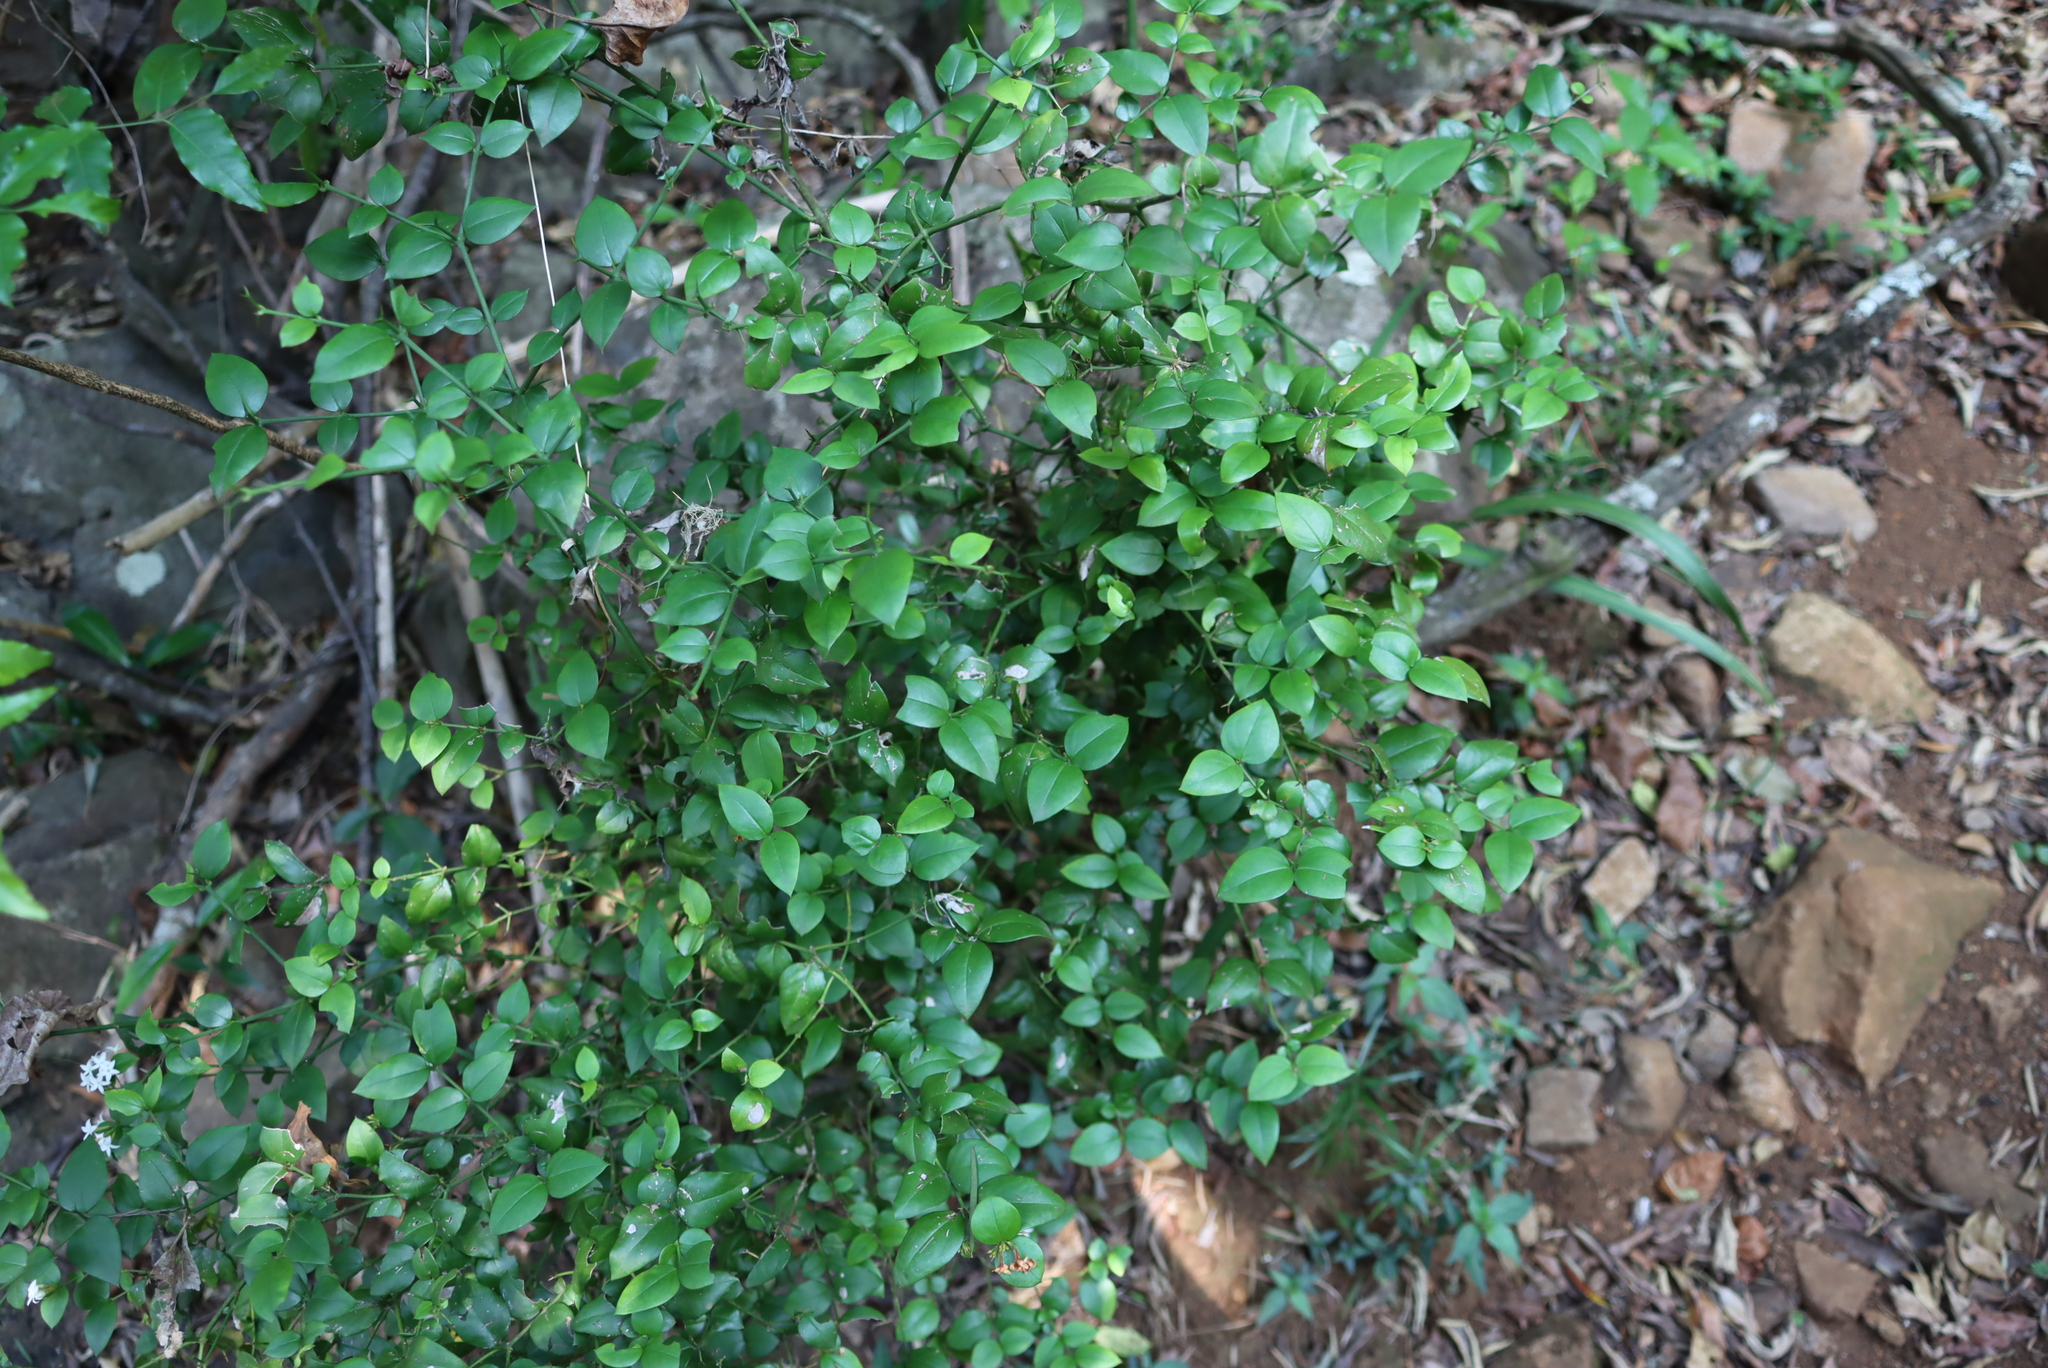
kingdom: Plantae
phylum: Tracheophyta
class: Magnoliopsida
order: Gentianales
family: Apocynaceae
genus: Carissa
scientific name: Carissa bispinosa
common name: Forest num-num
